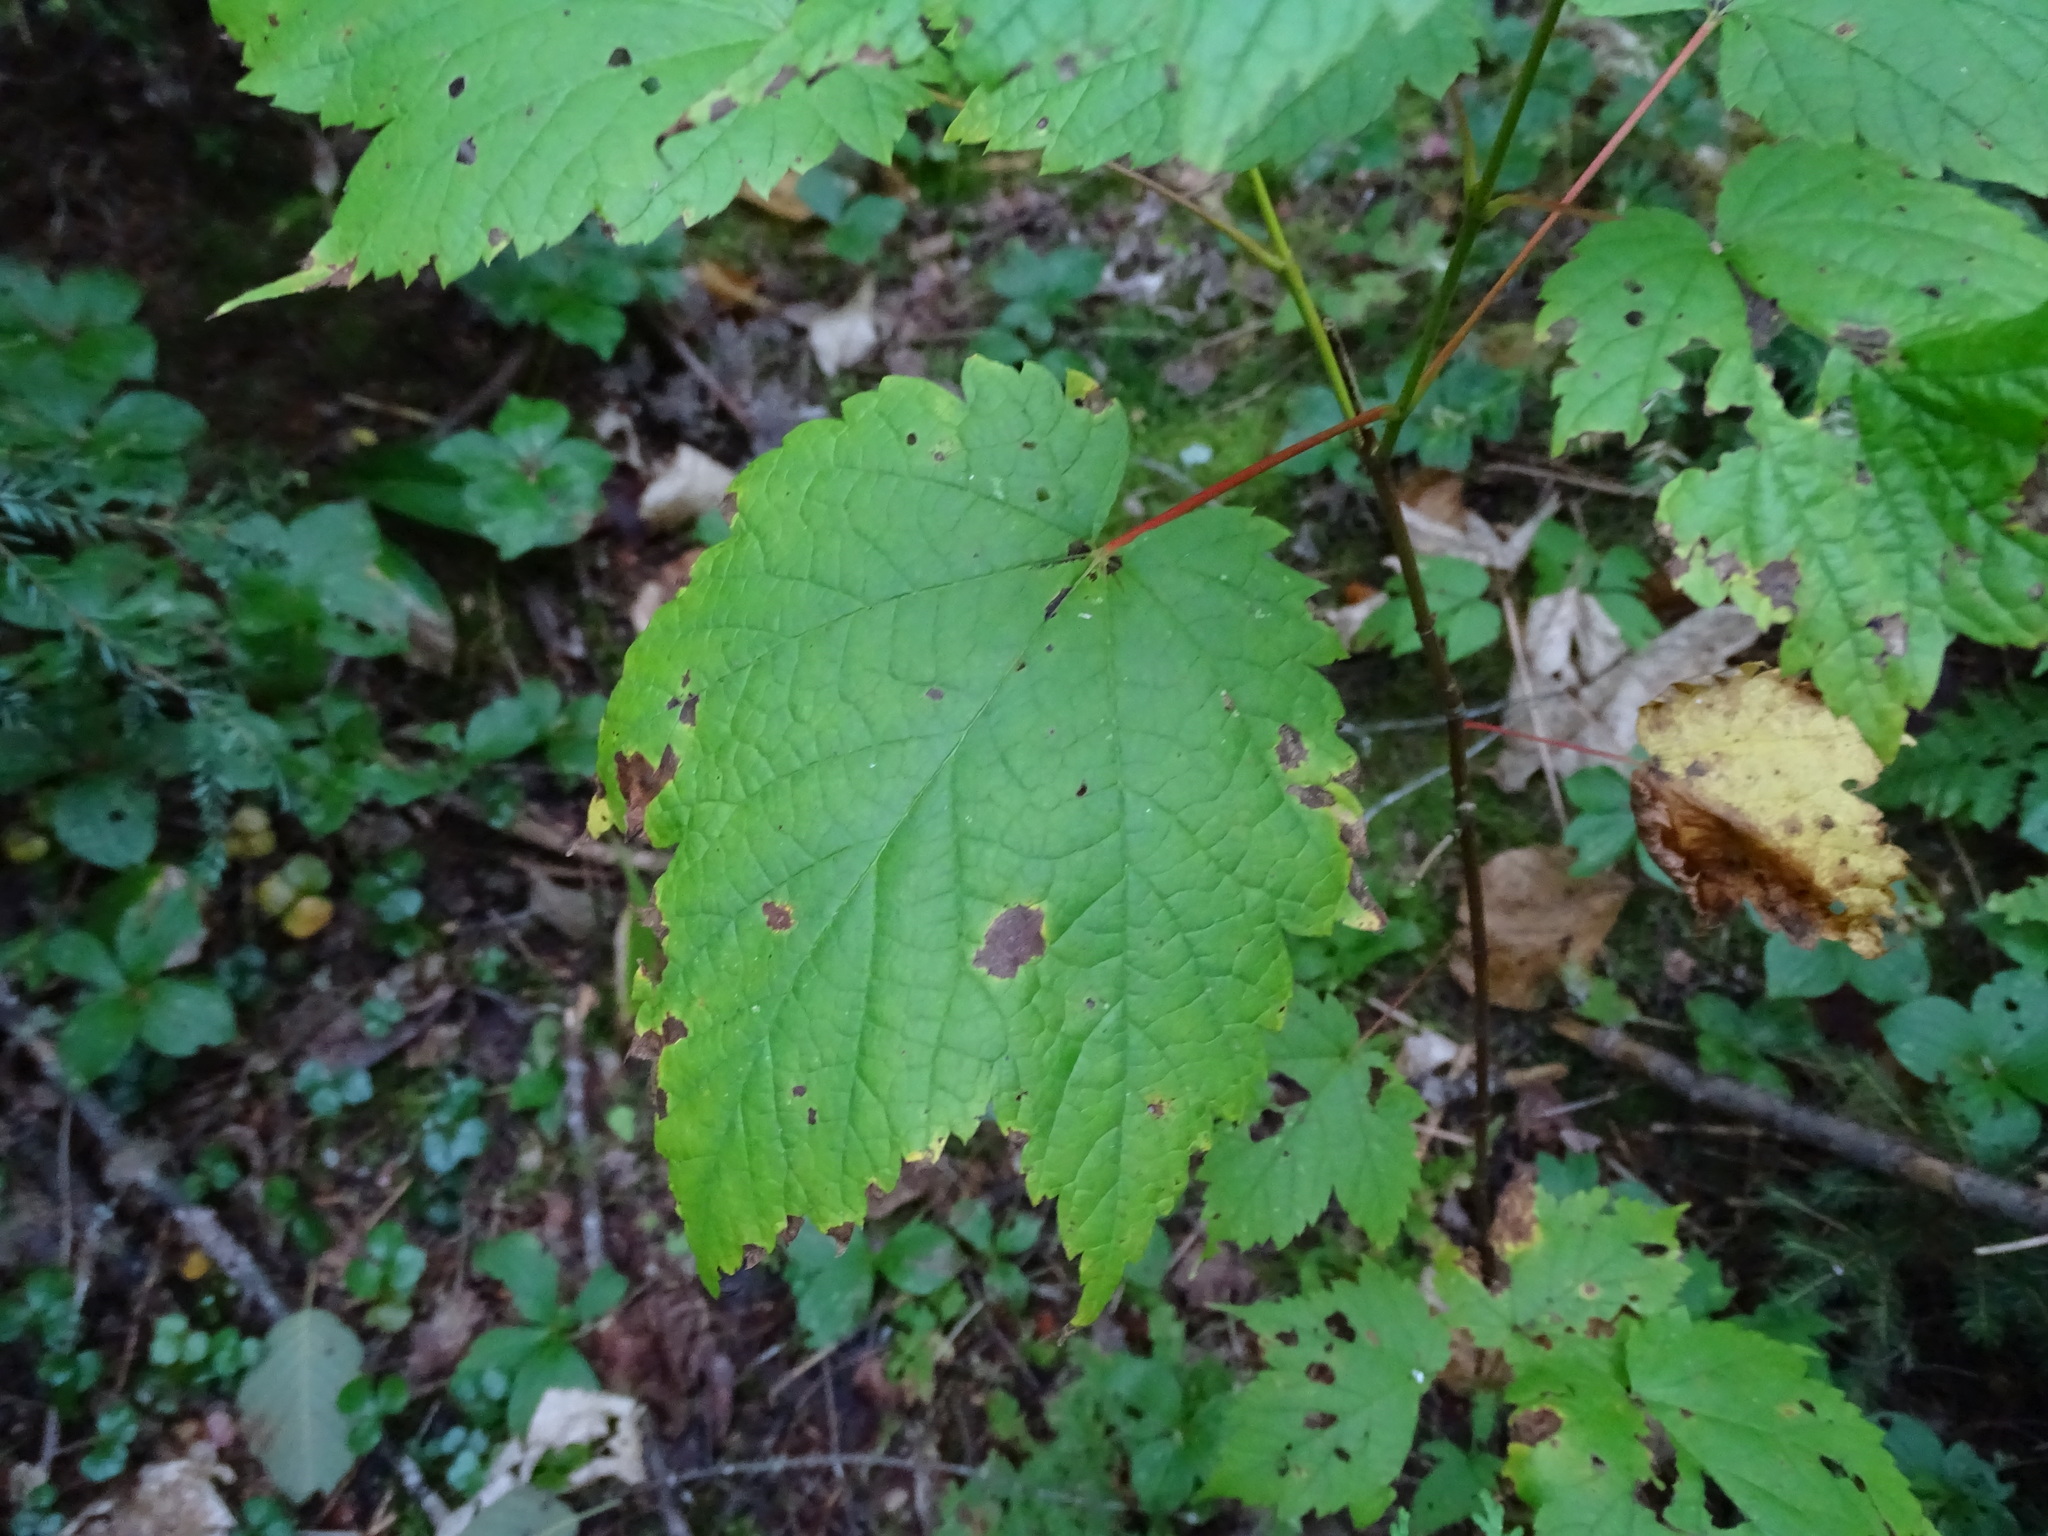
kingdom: Plantae
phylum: Tracheophyta
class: Magnoliopsida
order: Sapindales
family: Sapindaceae
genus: Acer
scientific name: Acer spicatum
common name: Mountain maple
